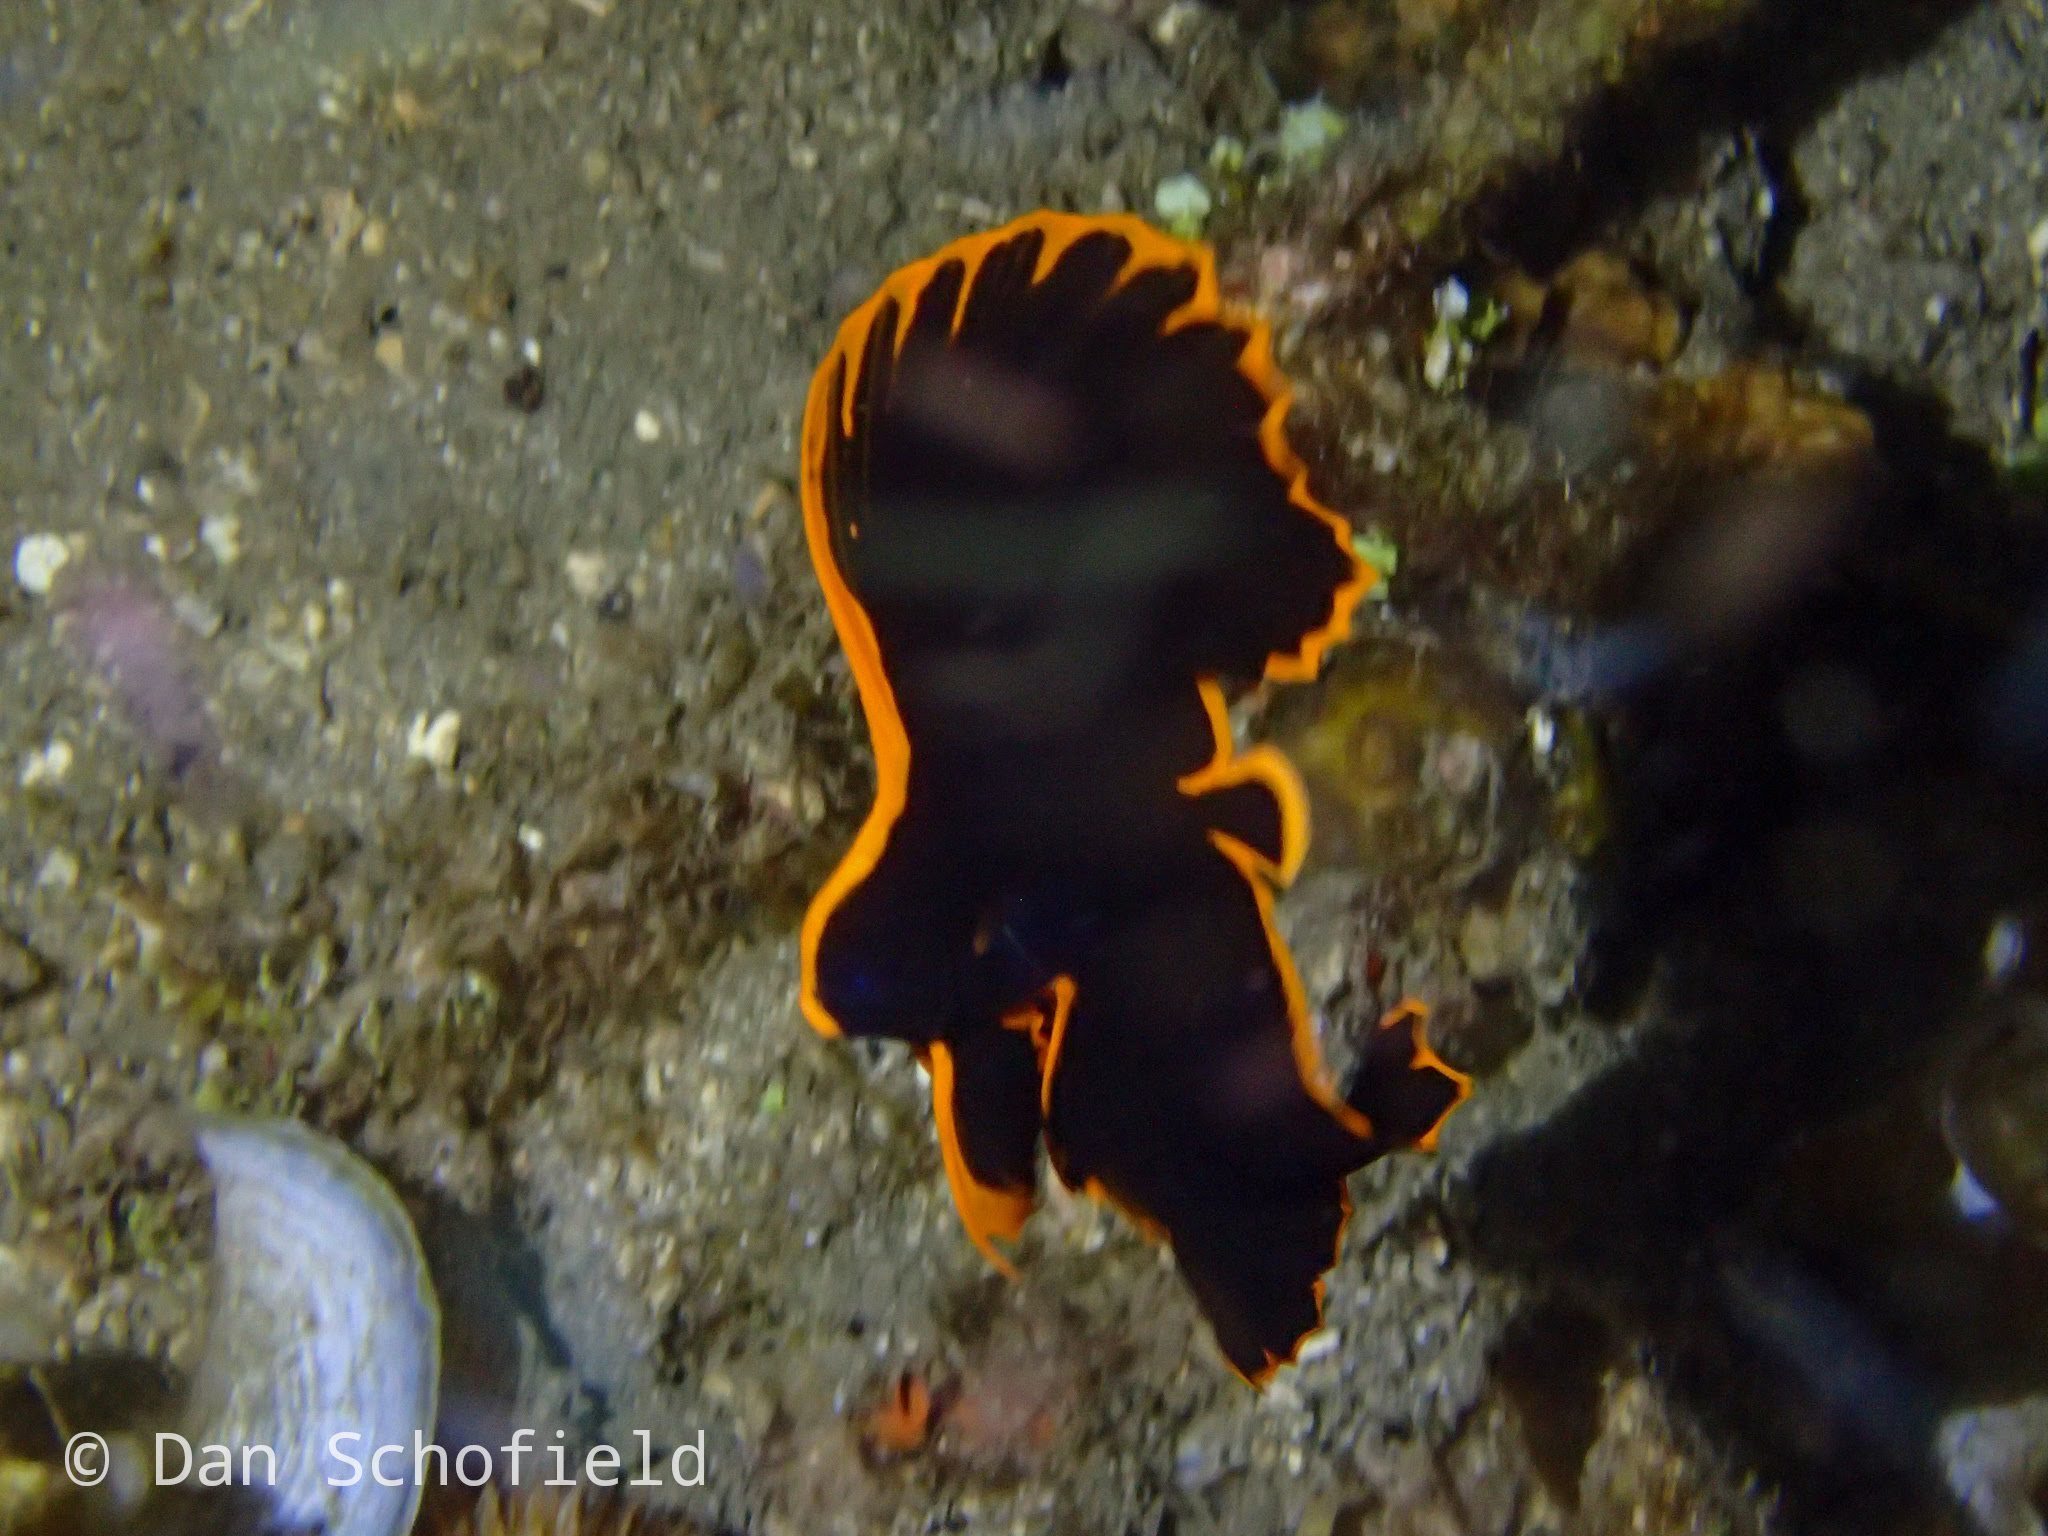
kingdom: Animalia
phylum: Chordata
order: Perciformes
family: Ephippidae
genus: Platax
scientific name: Platax pinnatus
